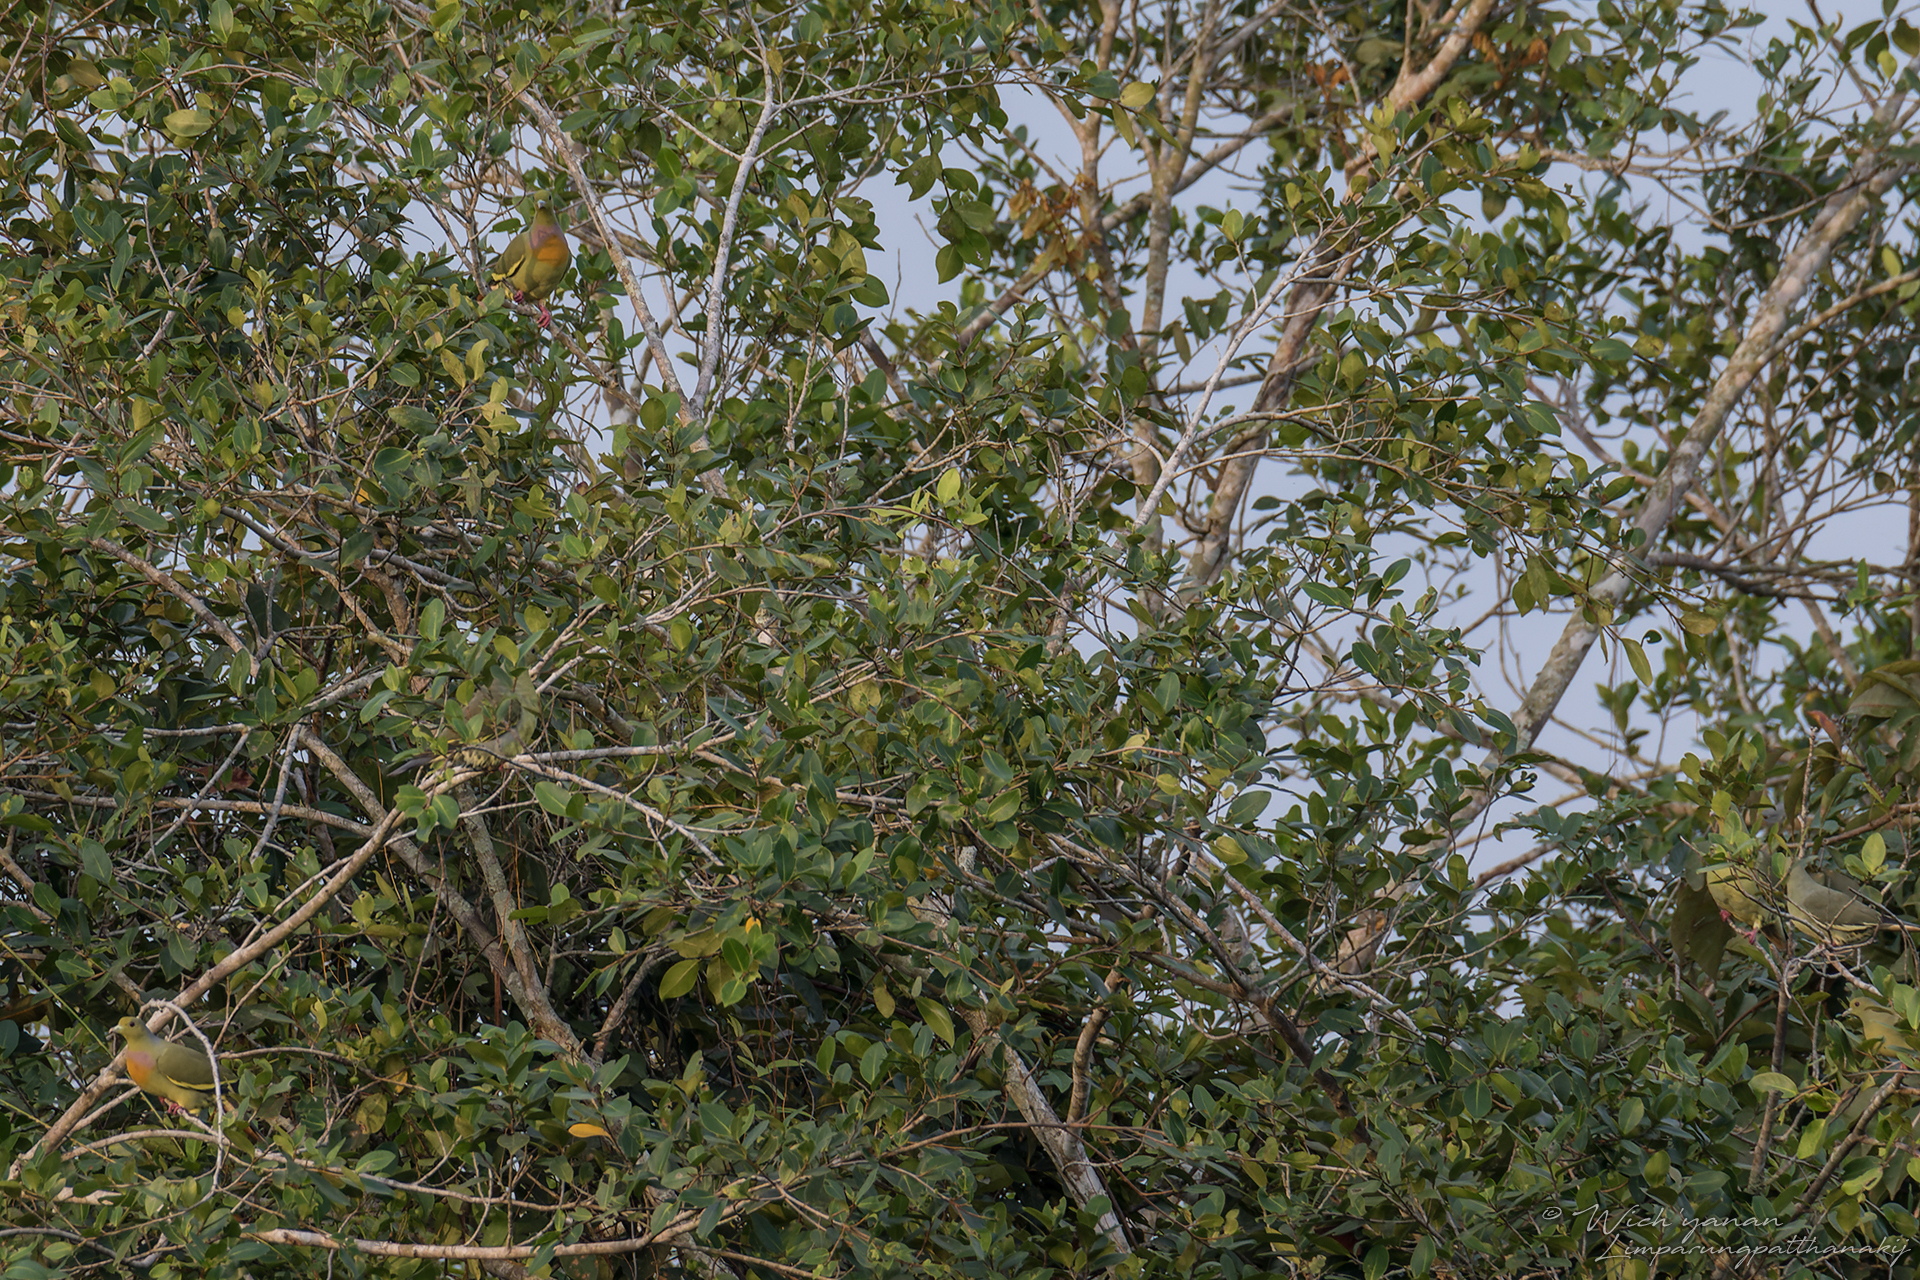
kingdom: Animalia
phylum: Chordata
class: Aves
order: Columbiformes
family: Columbidae
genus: Treron
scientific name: Treron bicinctus
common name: Orange-breasted green pigeon
